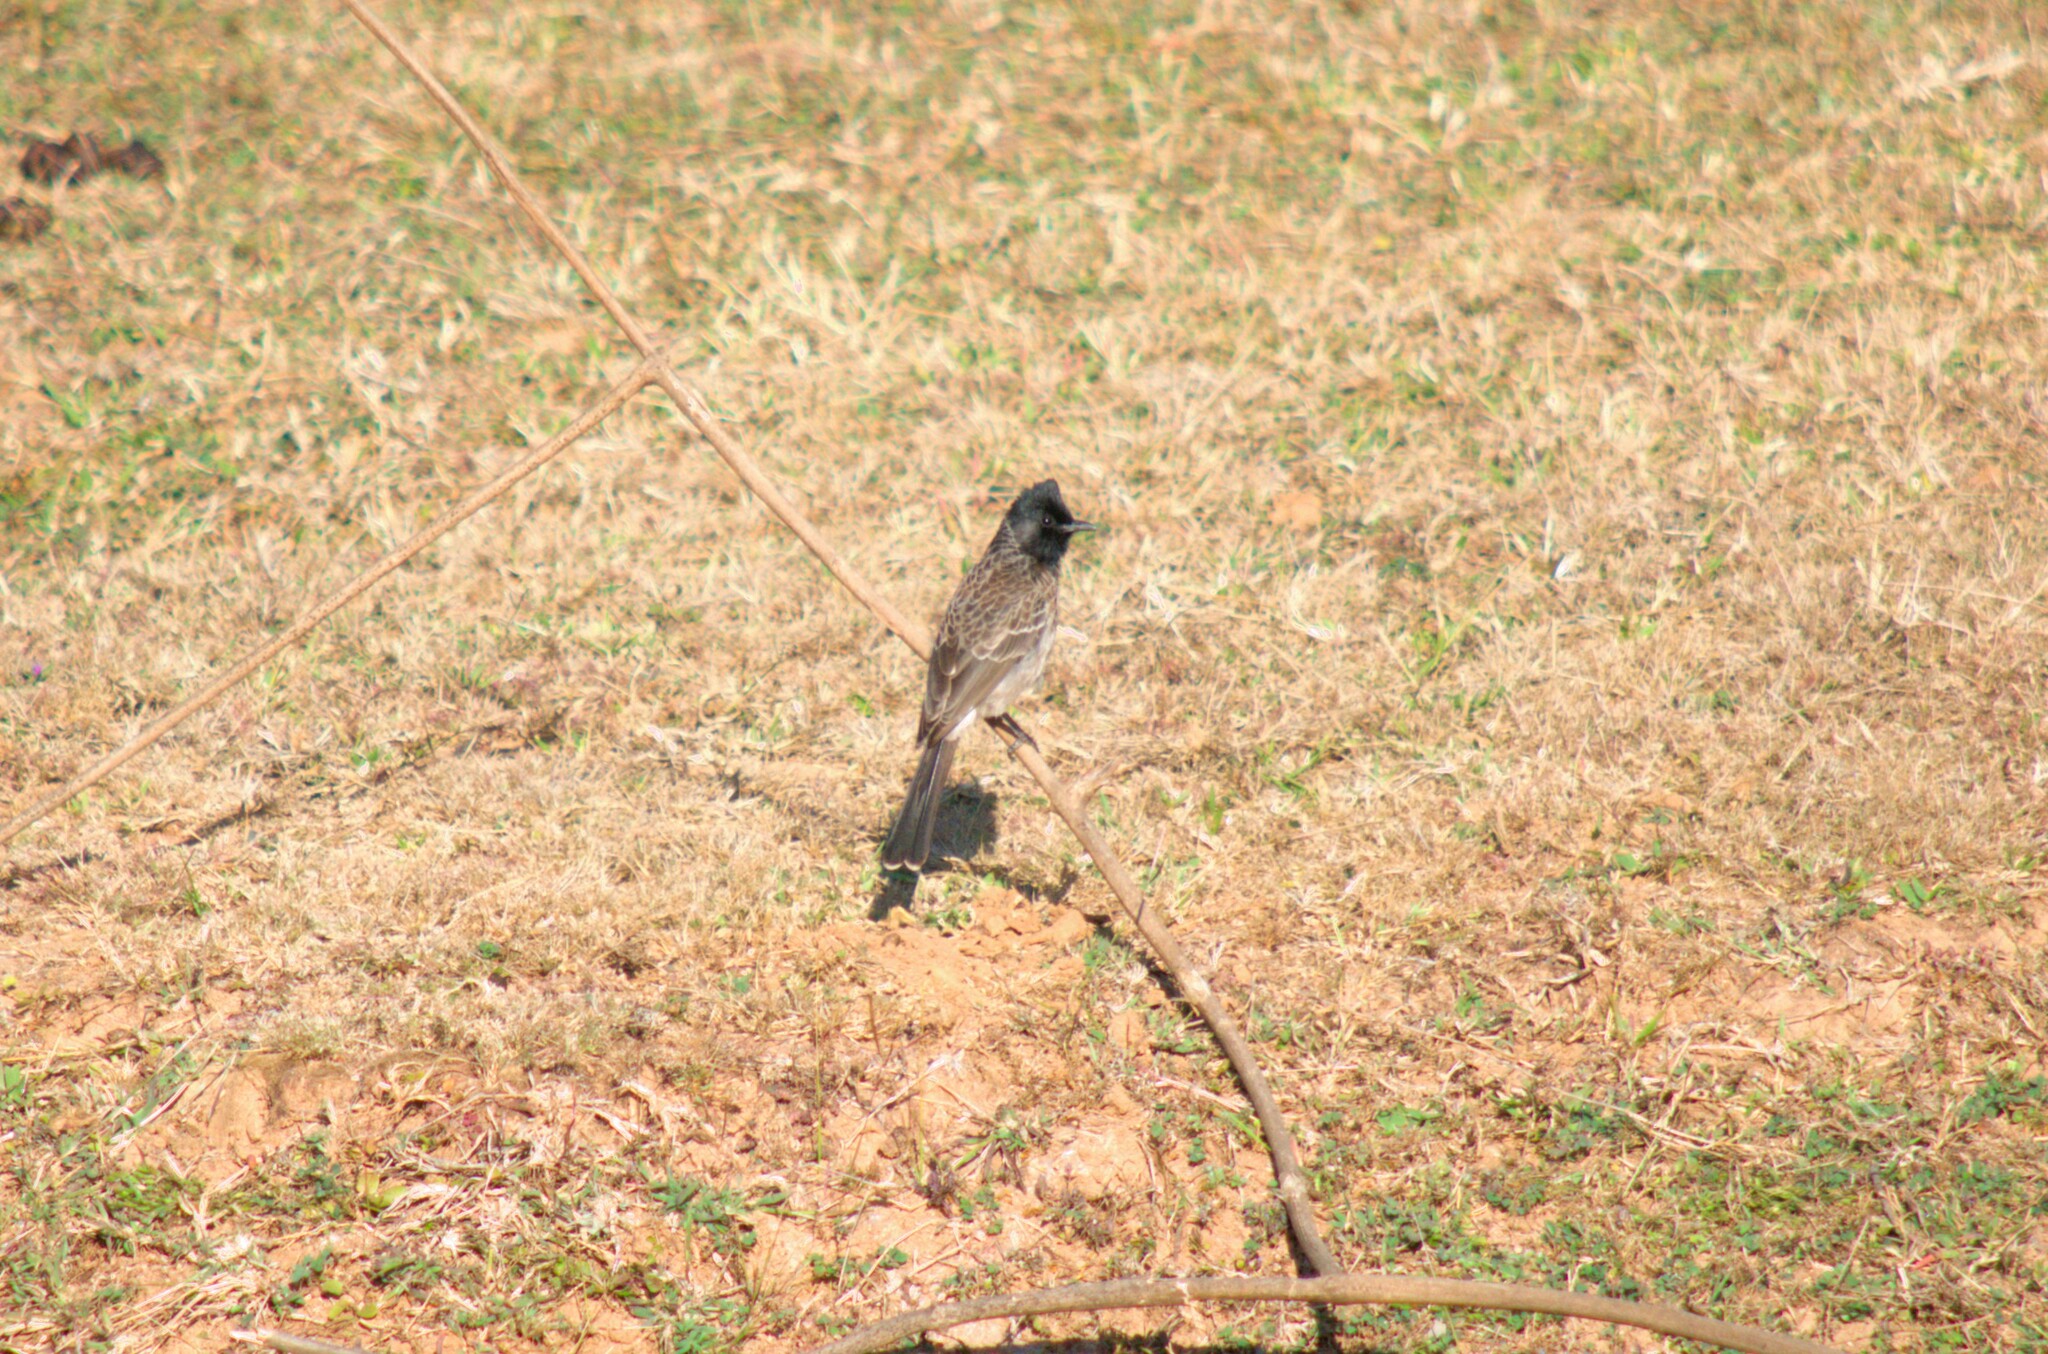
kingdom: Animalia
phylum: Chordata
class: Aves
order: Passeriformes
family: Pycnonotidae
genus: Pycnonotus
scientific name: Pycnonotus cafer
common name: Red-vented bulbul
